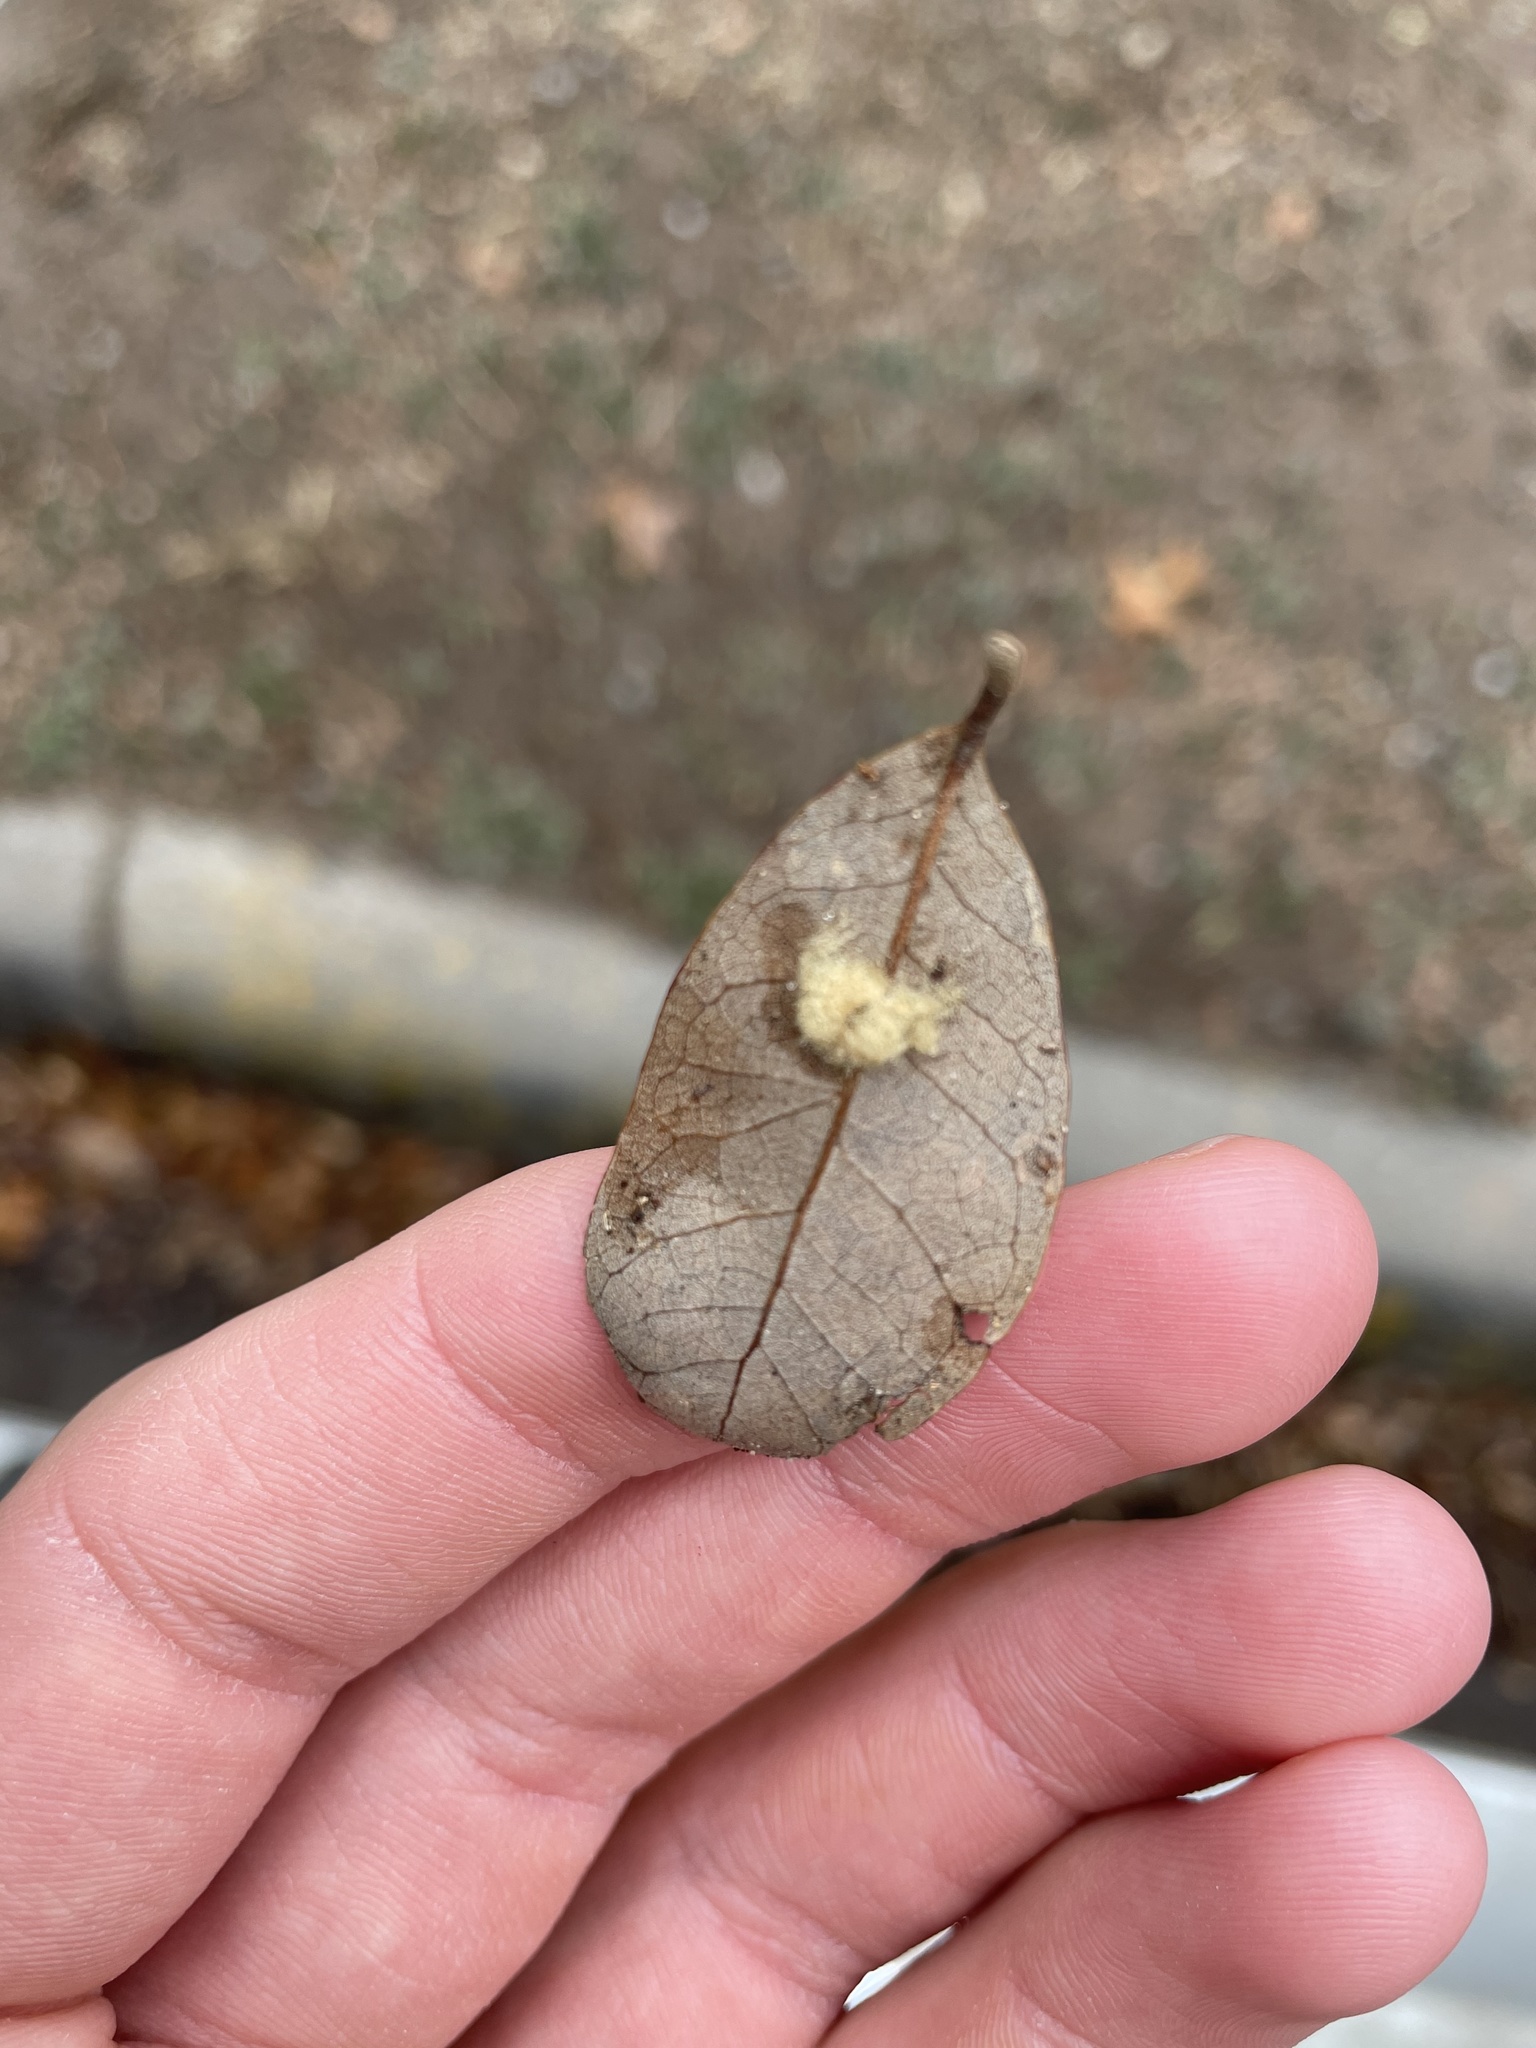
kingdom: Animalia
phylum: Arthropoda
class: Insecta
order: Hymenoptera
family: Cynipidae
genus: Andricus
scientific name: Andricus Druon quercuslanigerum
